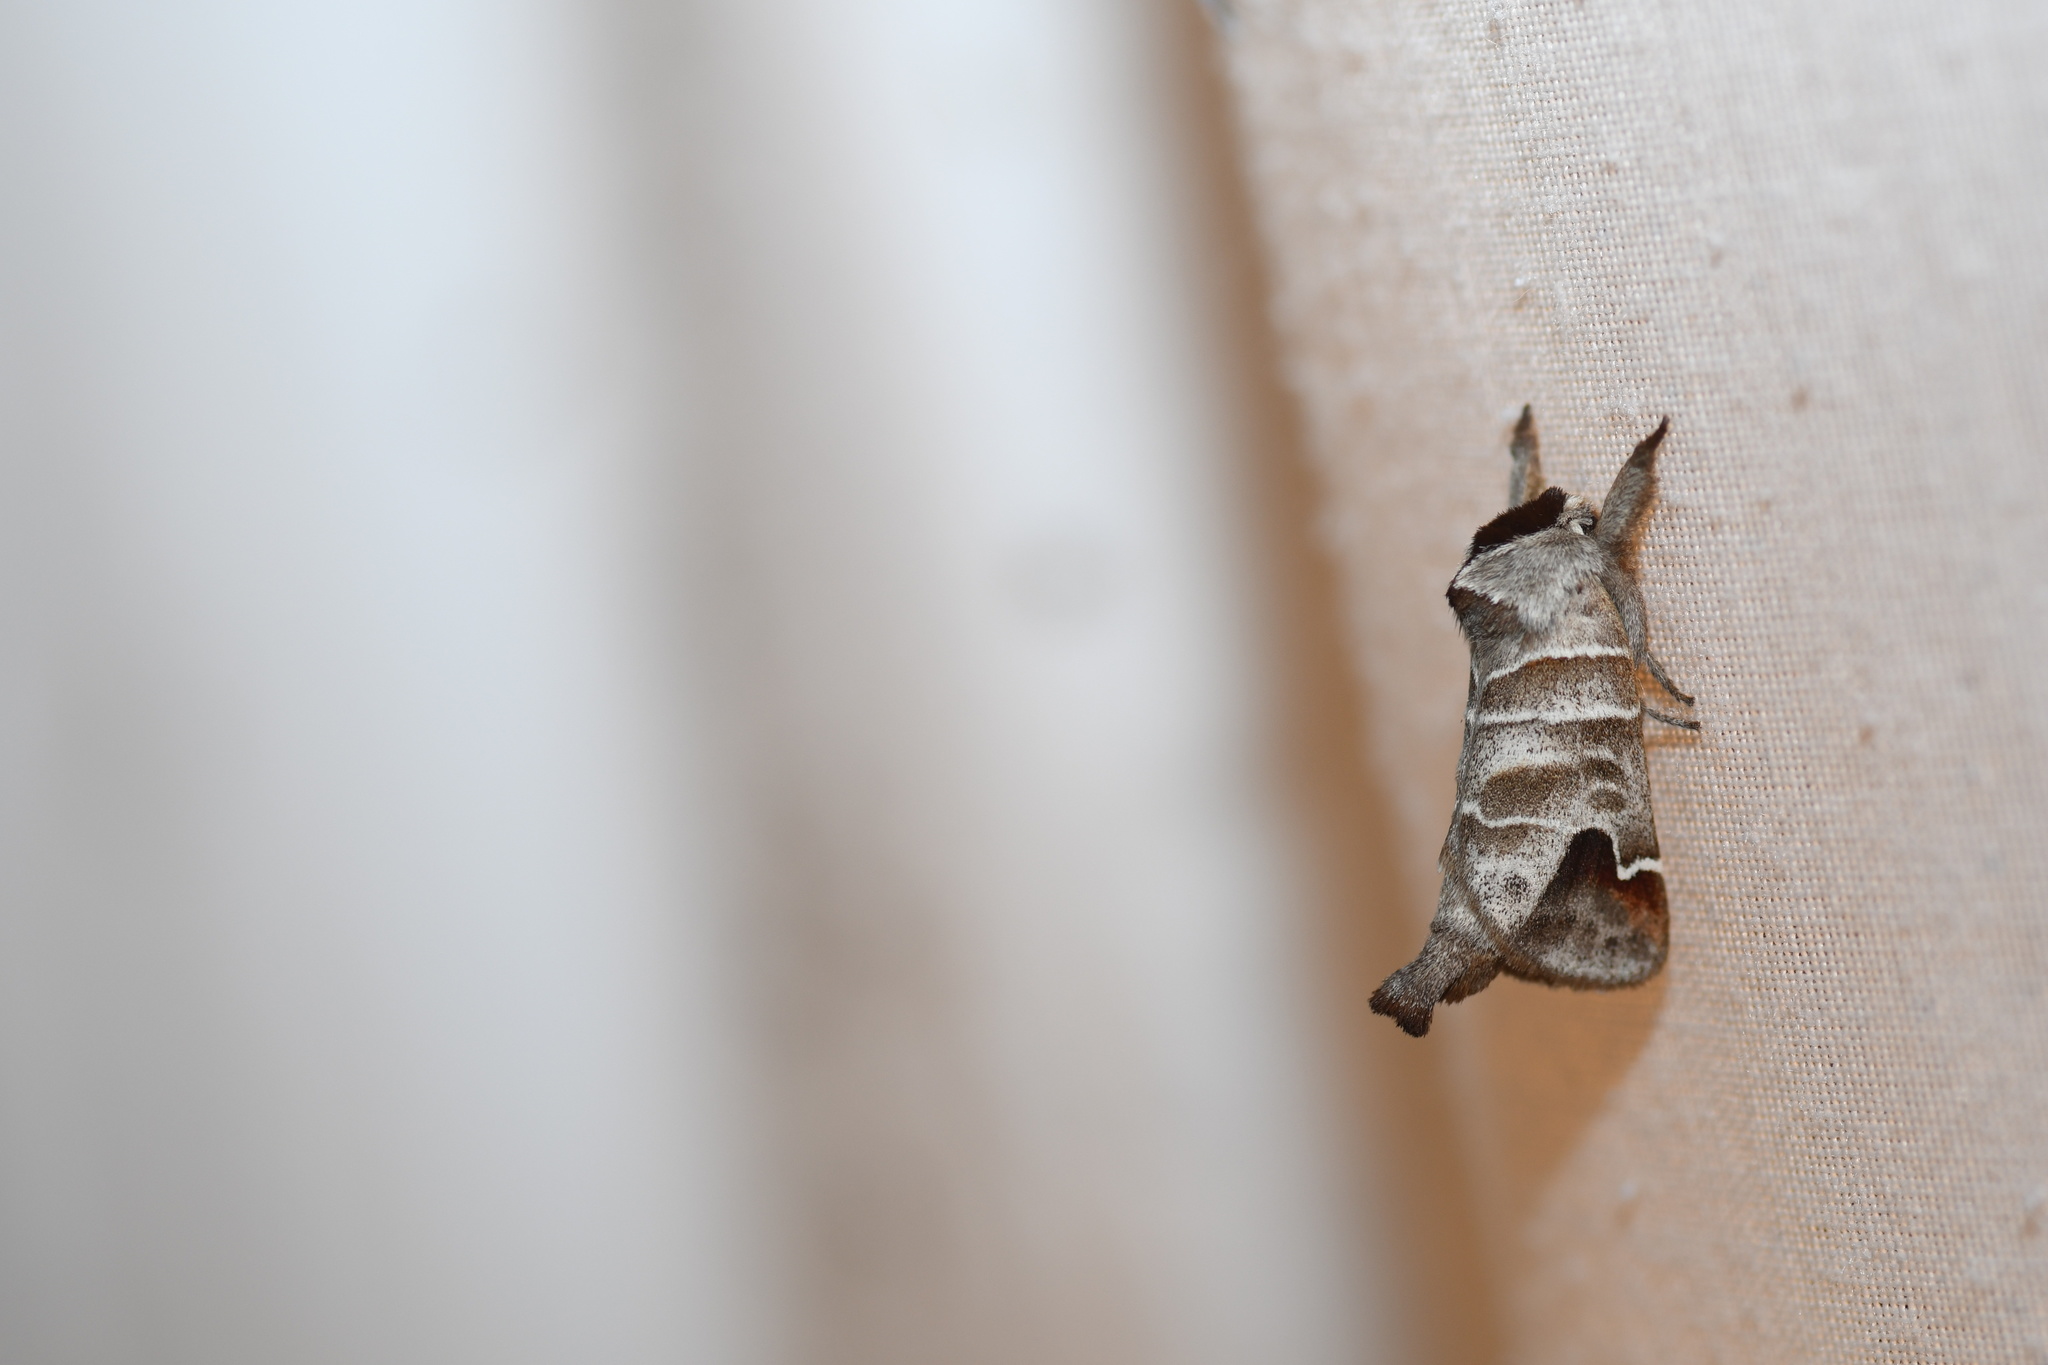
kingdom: Animalia
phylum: Arthropoda
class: Insecta
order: Lepidoptera
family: Notodontidae
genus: Clostera
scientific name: Clostera albosigma
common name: Sigmoid prominent
